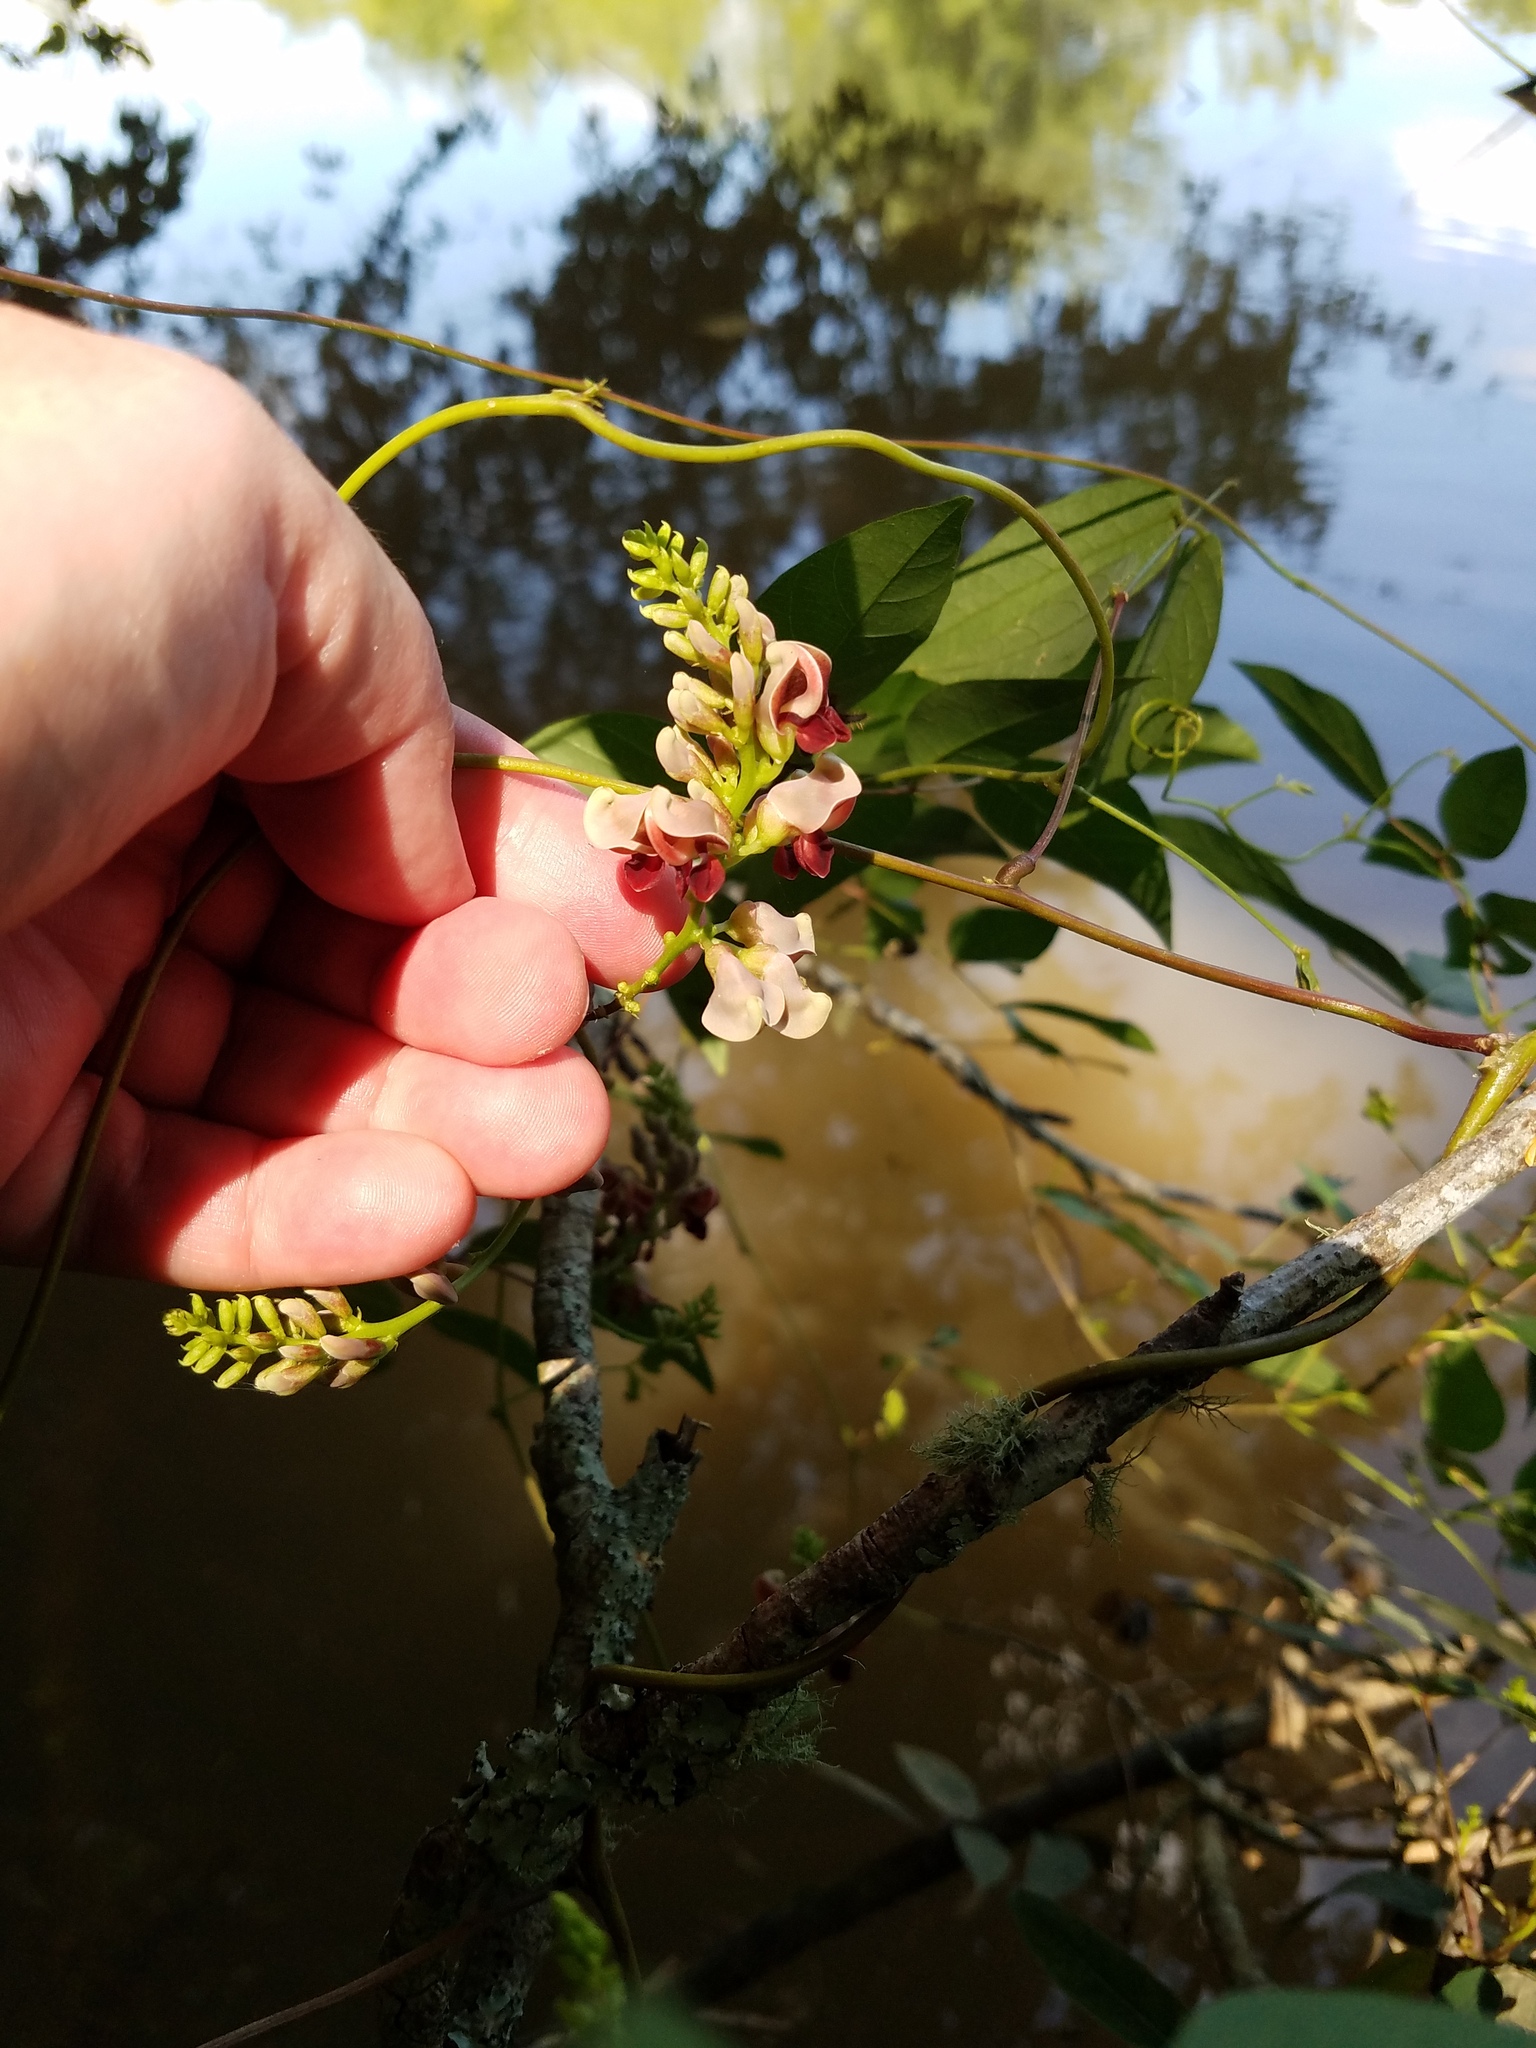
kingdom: Plantae
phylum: Tracheophyta
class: Magnoliopsida
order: Fabales
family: Fabaceae
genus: Apios
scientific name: Apios americana
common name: American potato-bean
